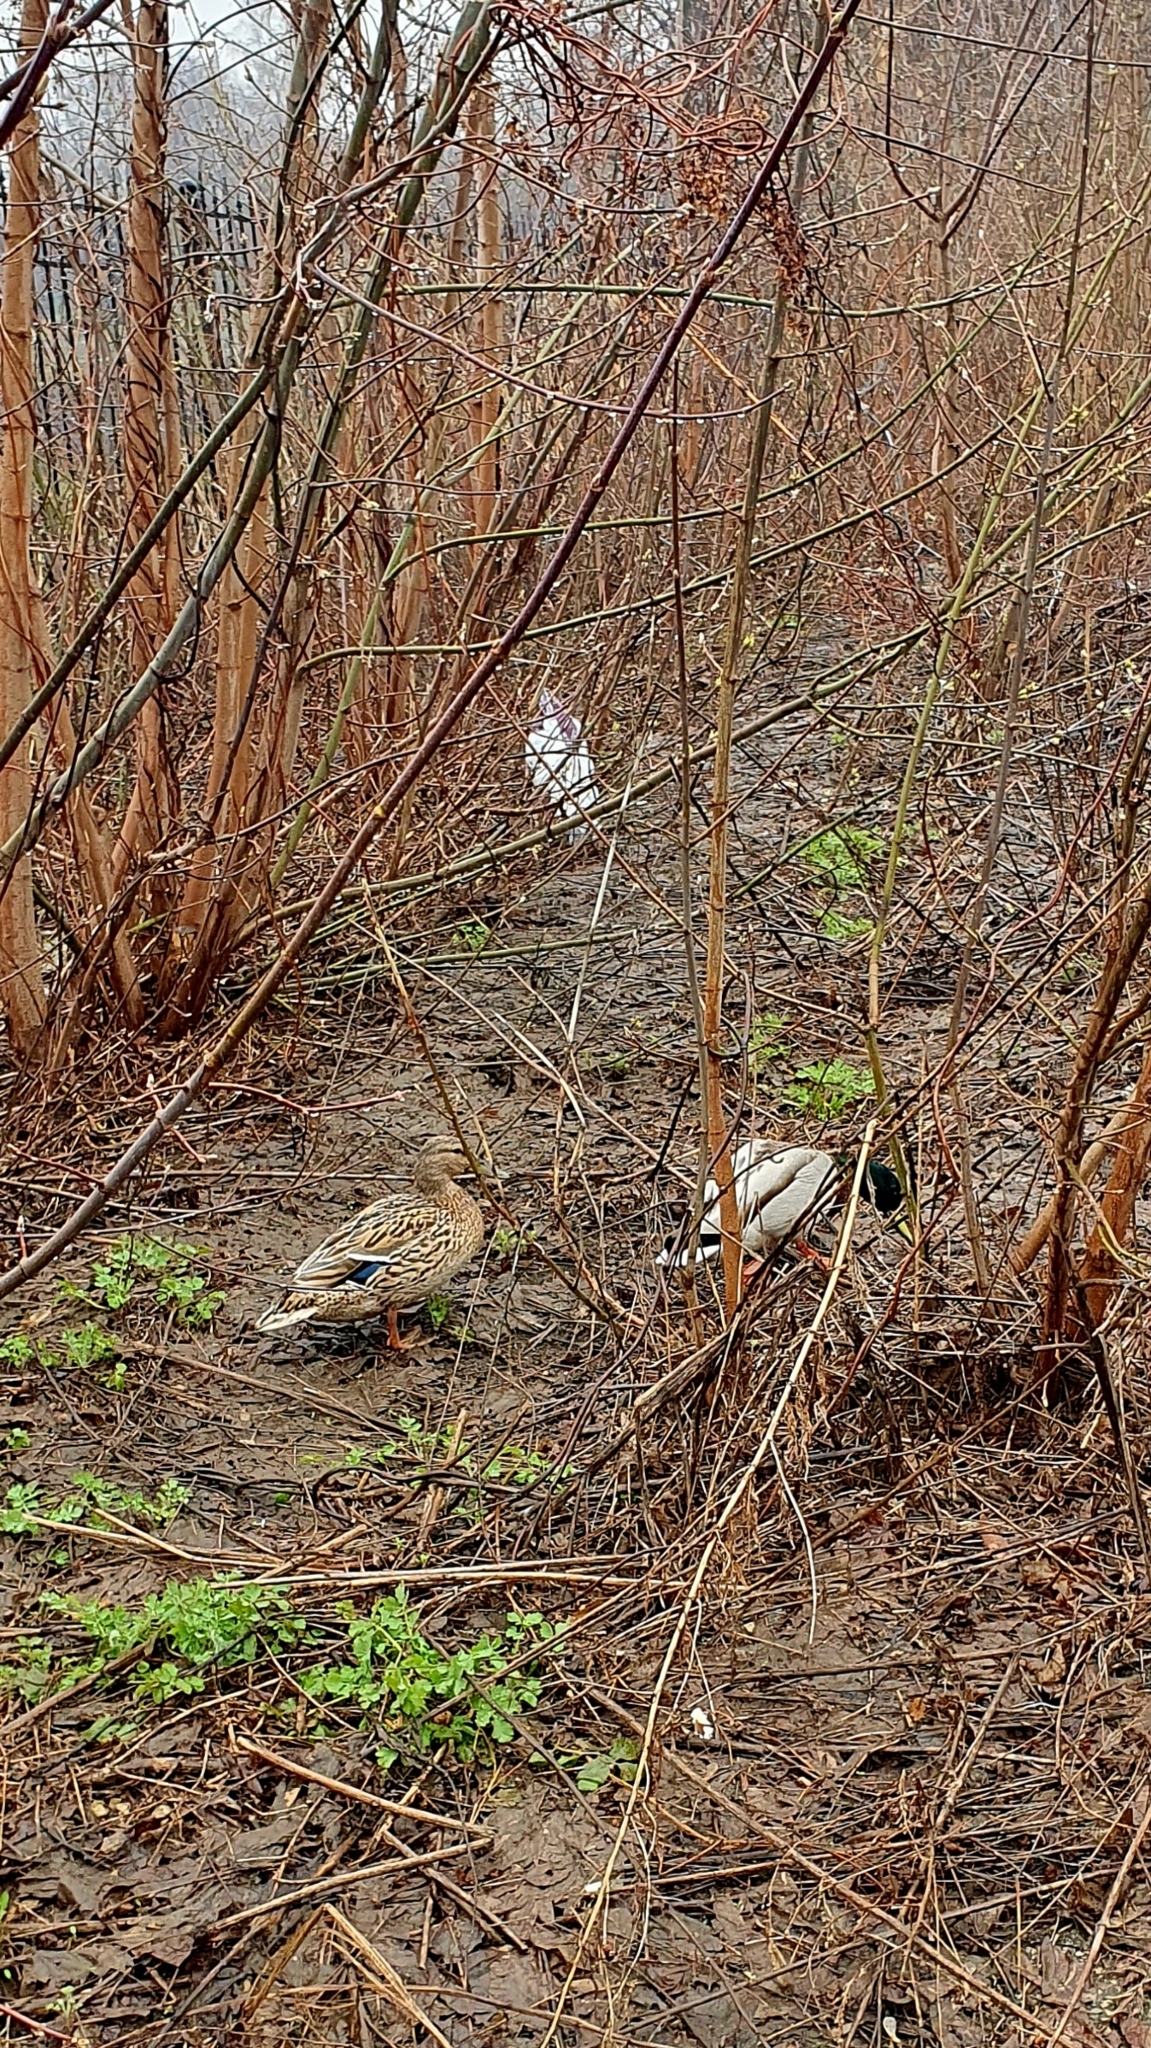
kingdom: Animalia
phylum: Chordata
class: Aves
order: Anseriformes
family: Anatidae
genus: Anas
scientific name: Anas platyrhynchos
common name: Mallard
